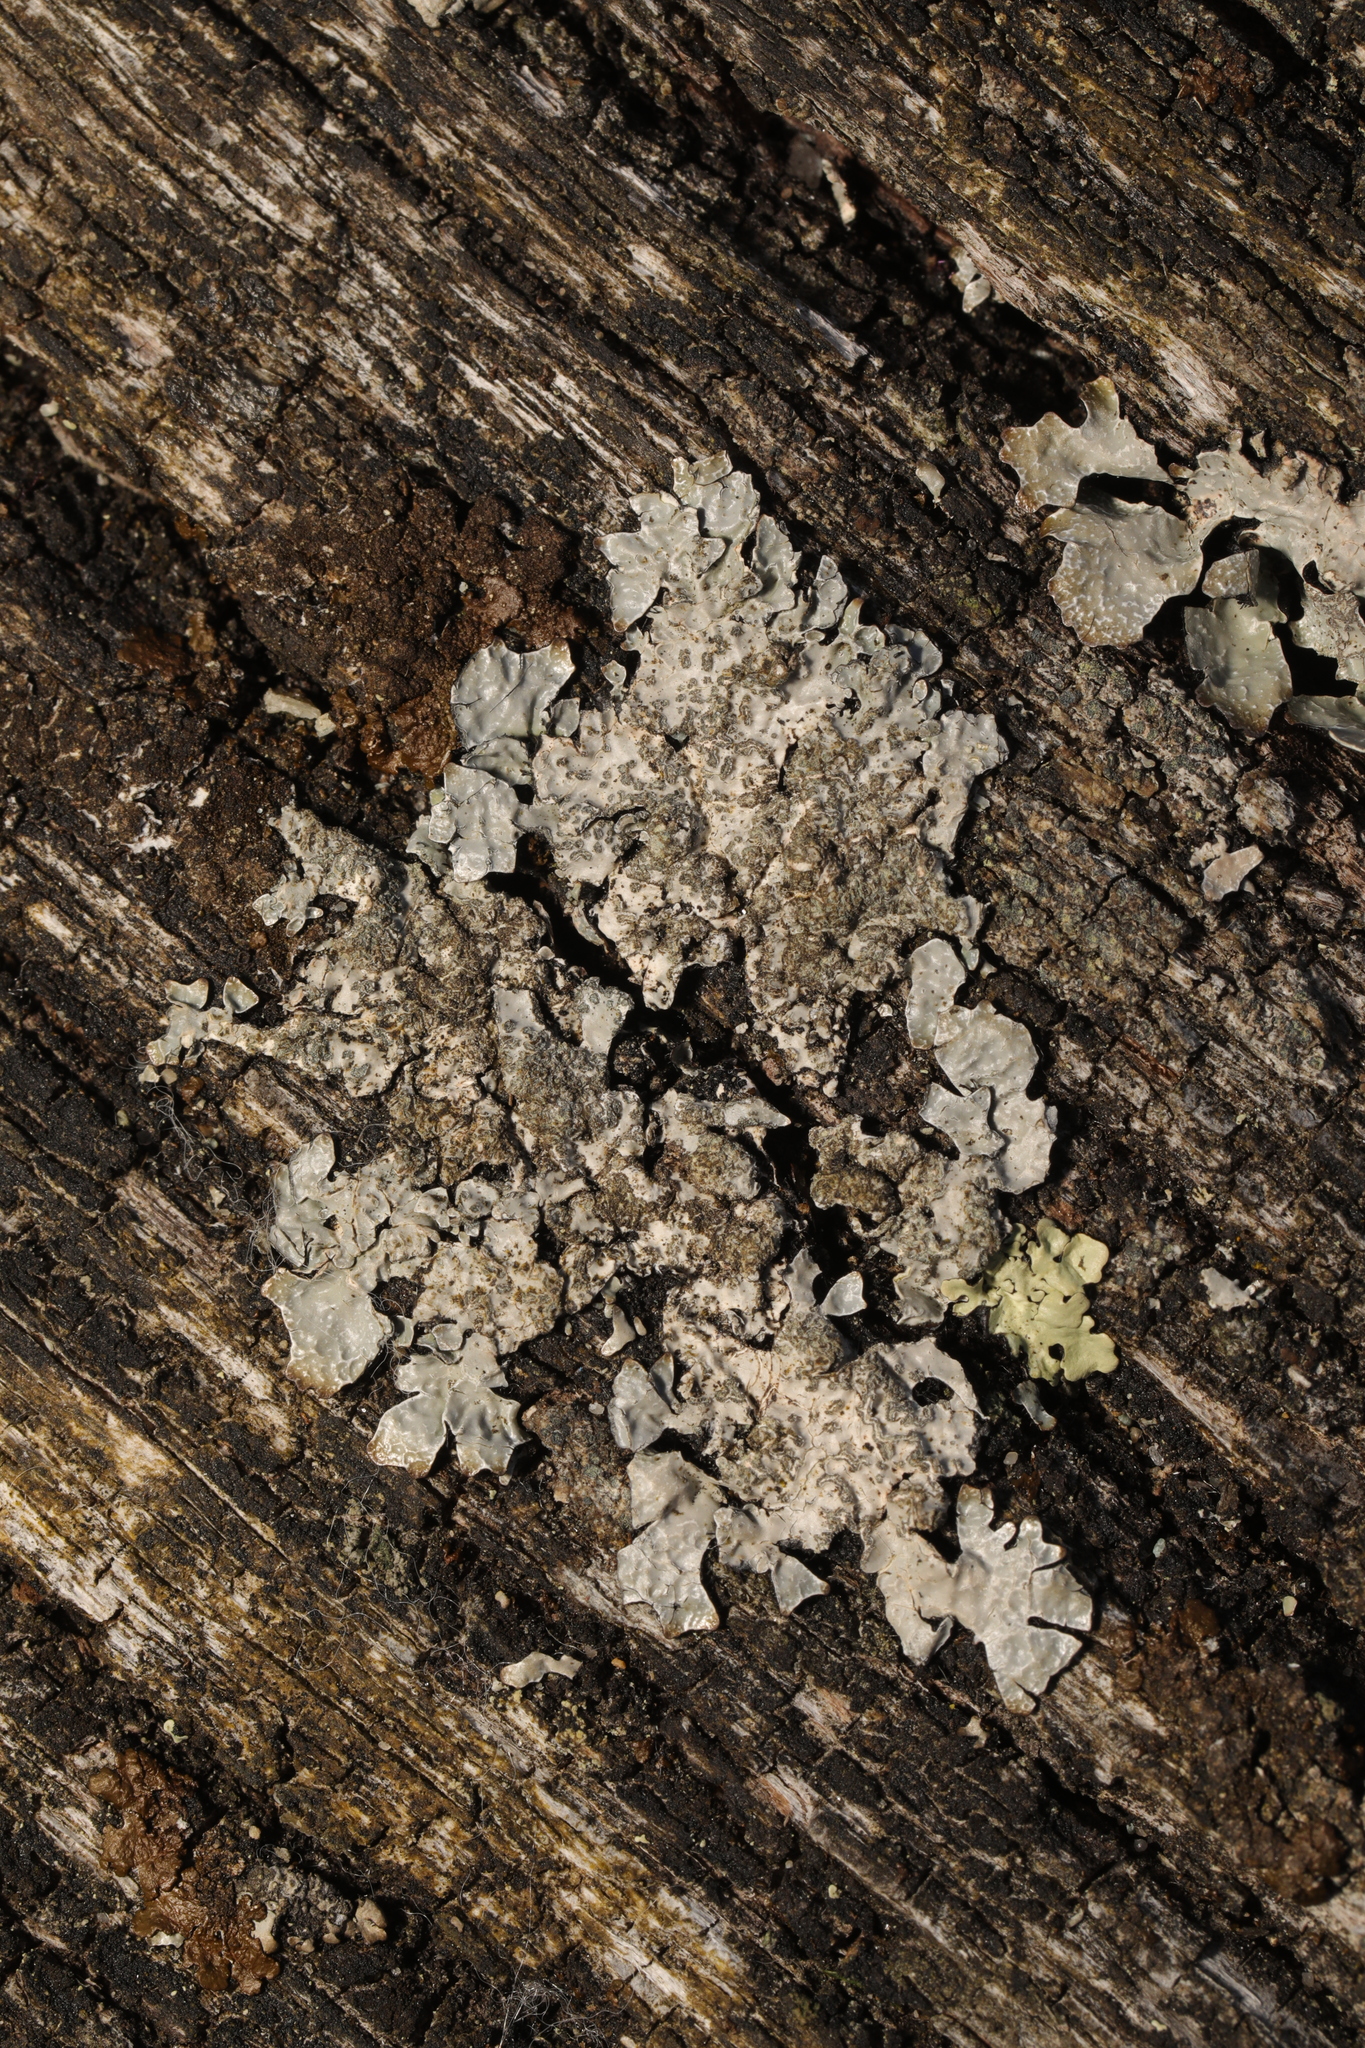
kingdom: Fungi
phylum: Ascomycota
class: Lecanoromycetes
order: Lecanorales
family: Parmeliaceae
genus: Parmelia
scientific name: Parmelia sulcata
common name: Netted shield lichen
